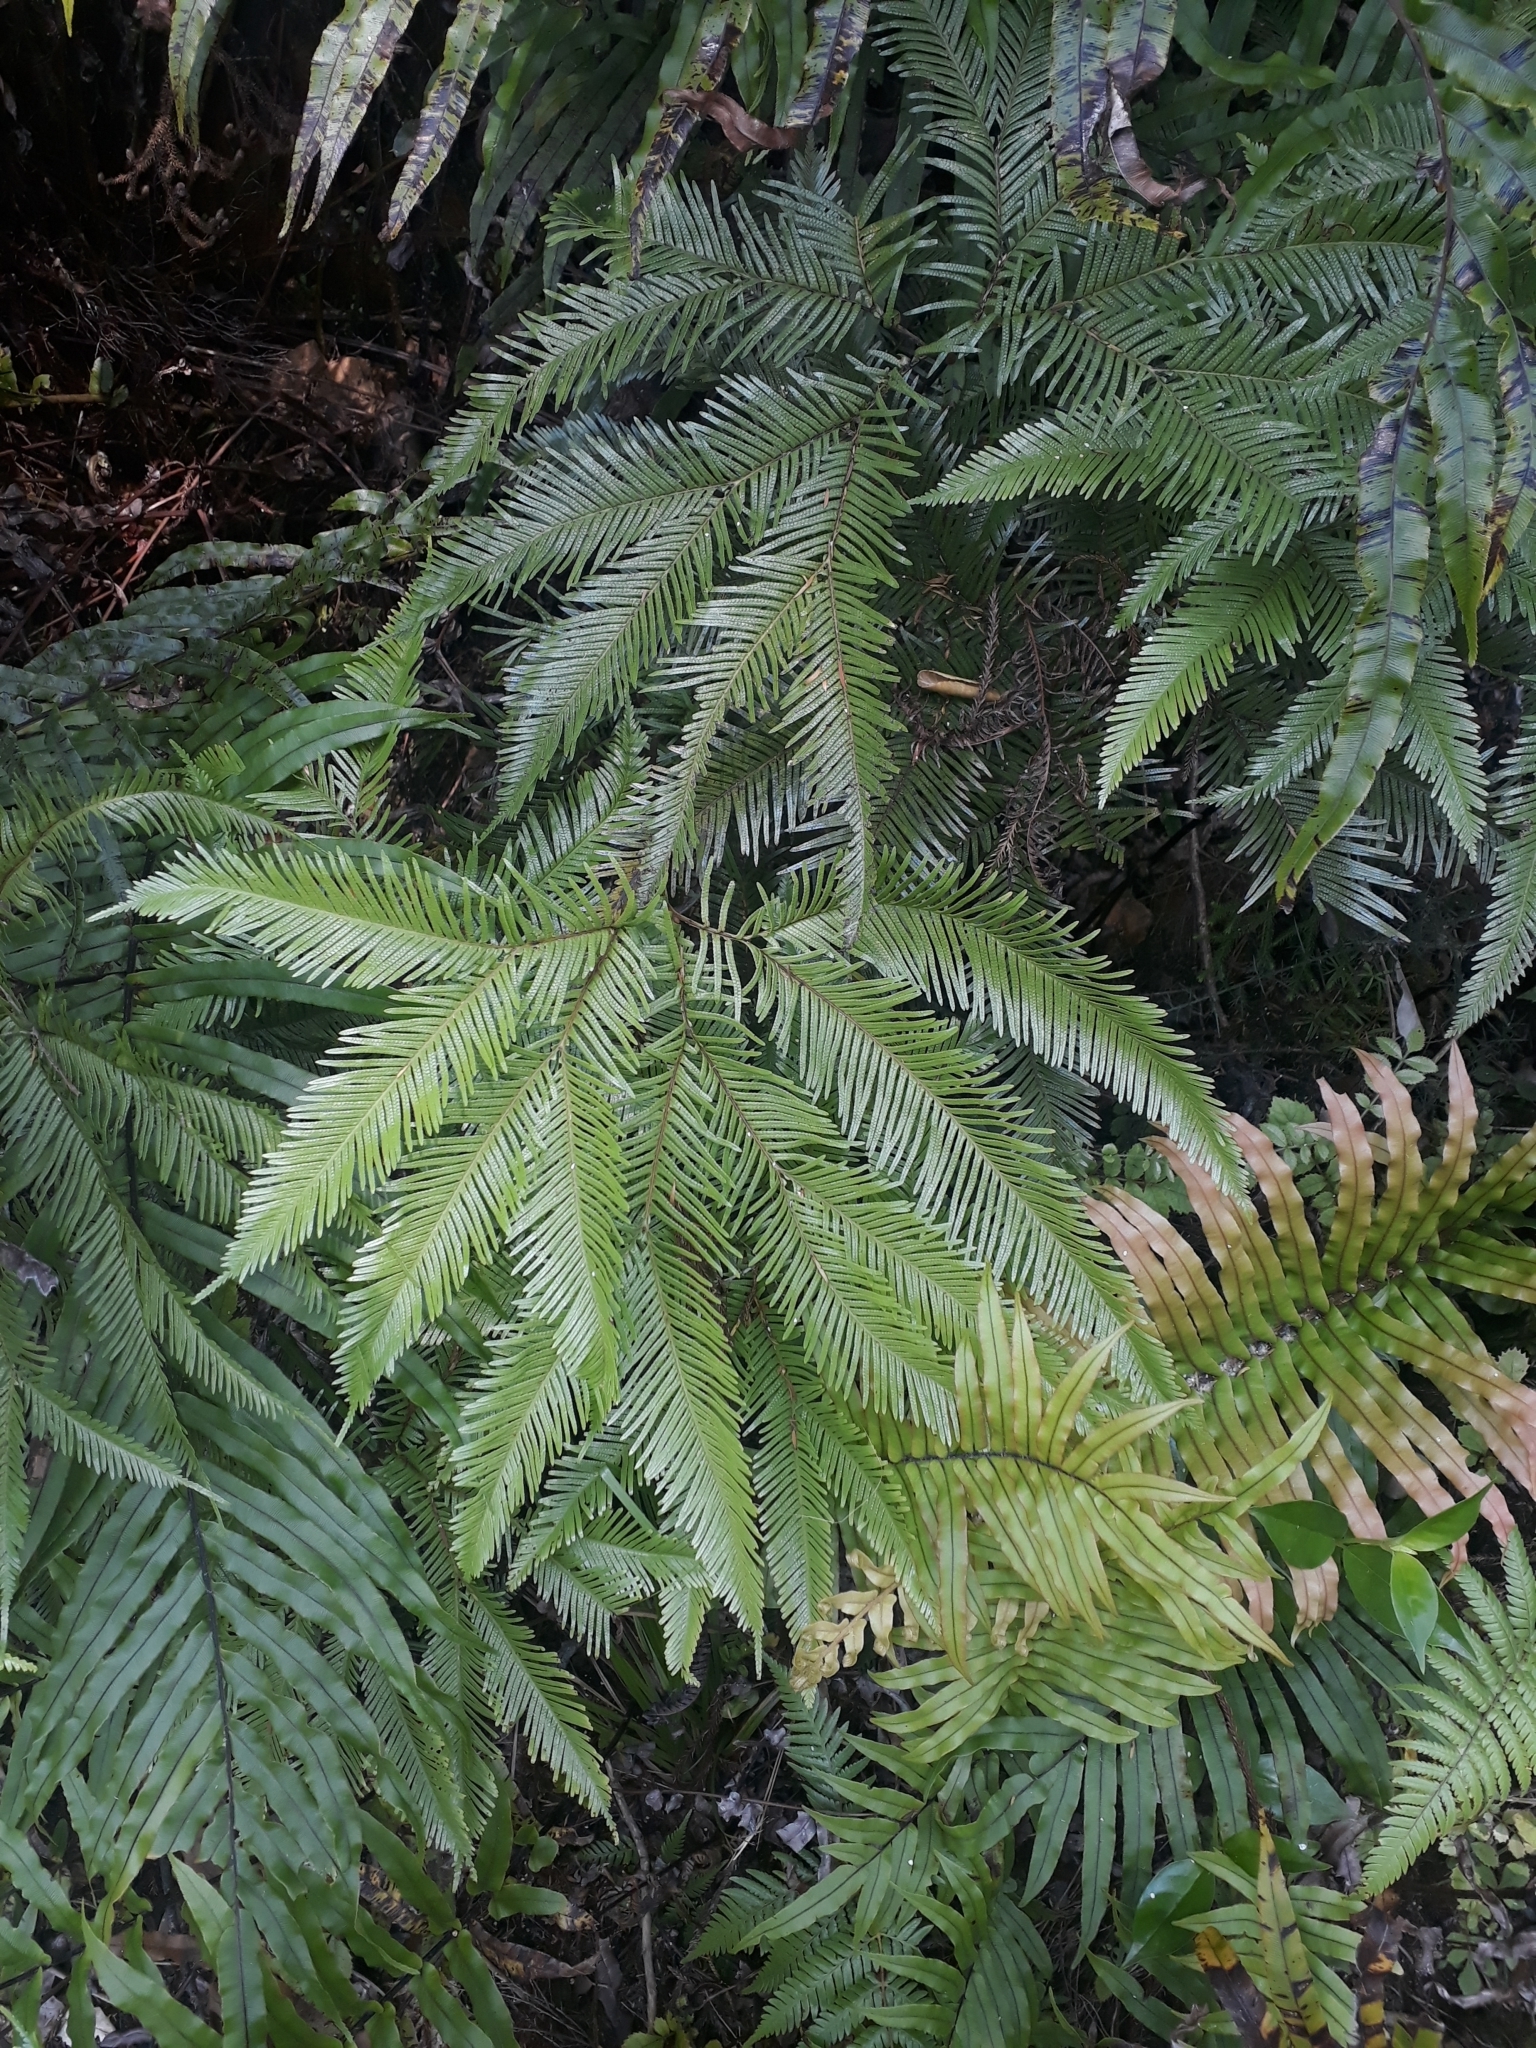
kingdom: Plantae
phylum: Tracheophyta
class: Polypodiopsida
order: Gleicheniales
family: Gleicheniaceae
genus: Sticherus
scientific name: Sticherus flabellatus
